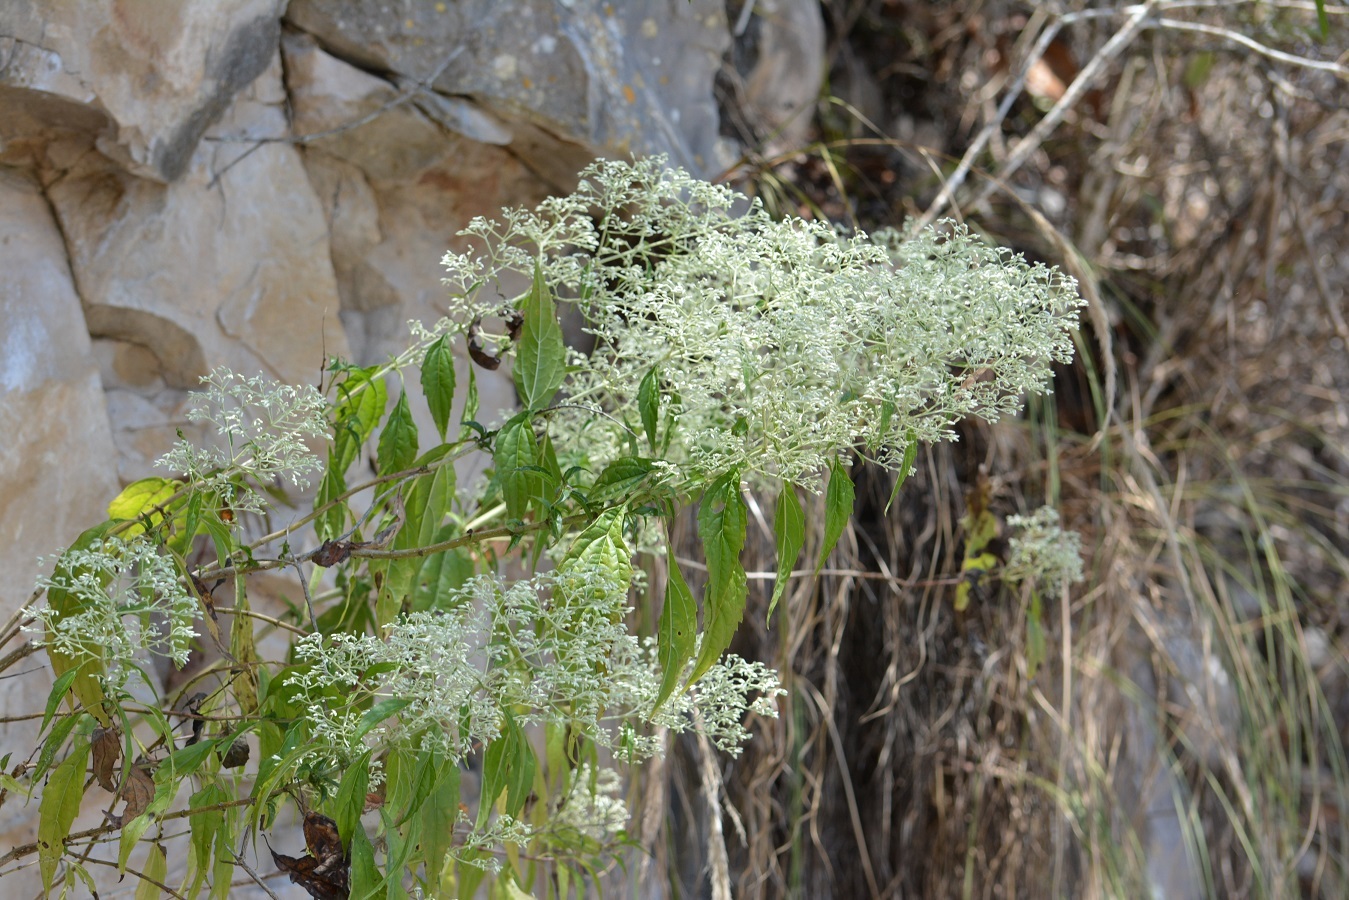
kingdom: Plantae
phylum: Tracheophyta
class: Magnoliopsida
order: Asterales
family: Asteraceae
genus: Fleischmanniopsis
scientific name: Fleischmanniopsis leucocephala
